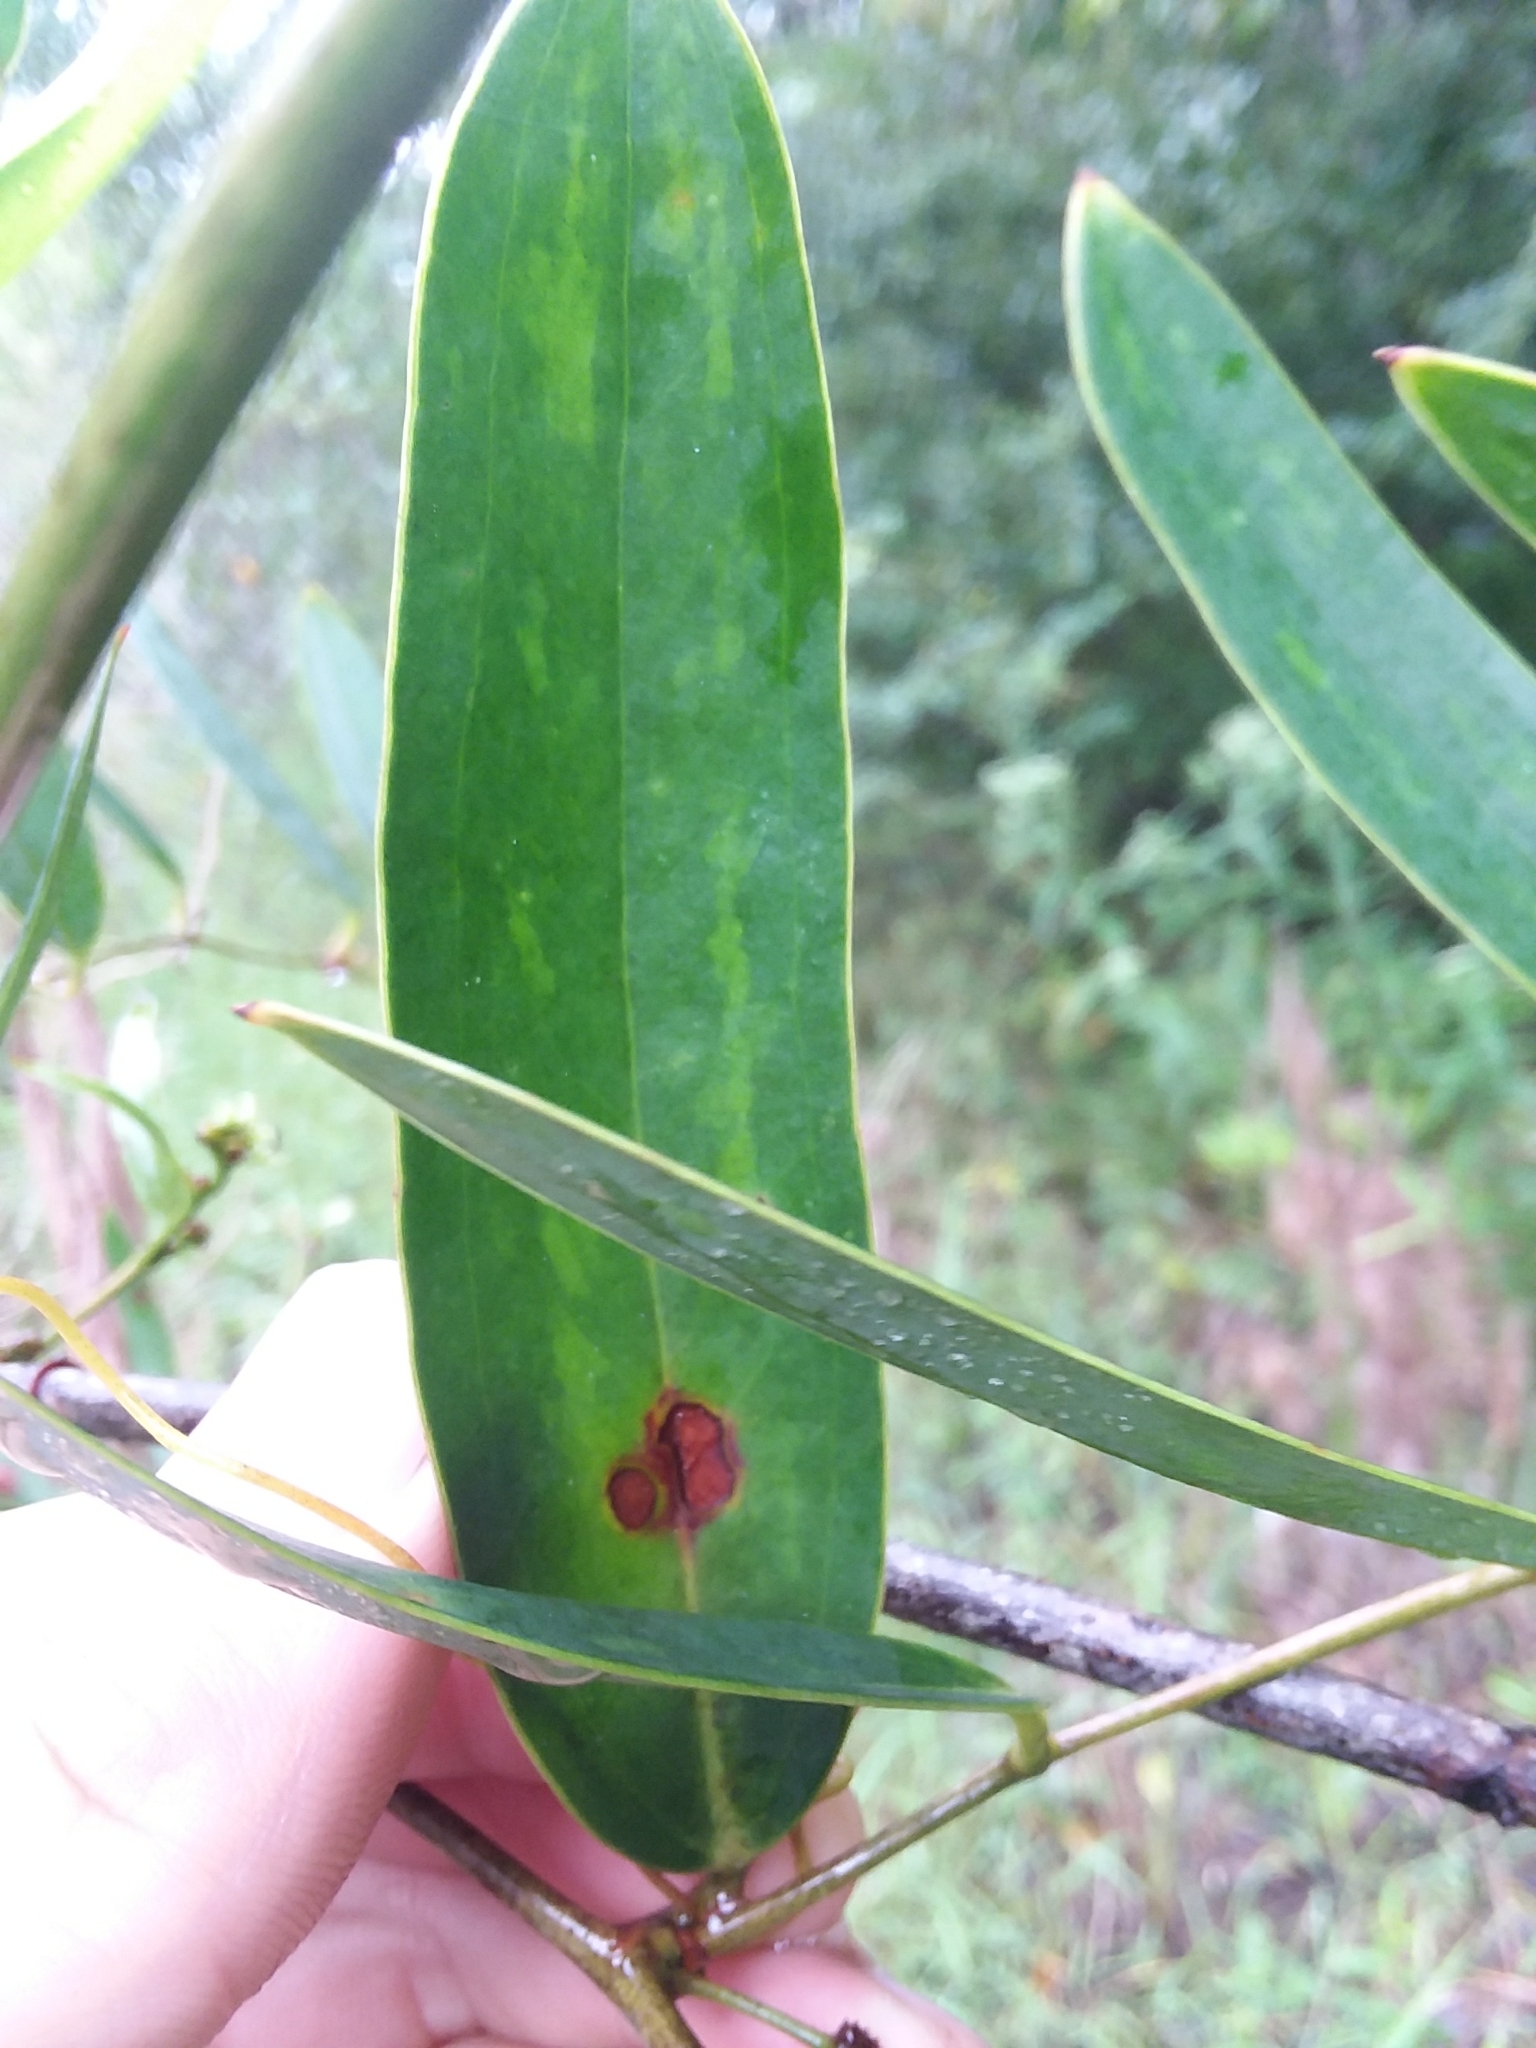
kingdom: Plantae
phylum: Tracheophyta
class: Liliopsida
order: Liliales
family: Smilacaceae
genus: Smilax
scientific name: Smilax laurifolia
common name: Bamboovine
